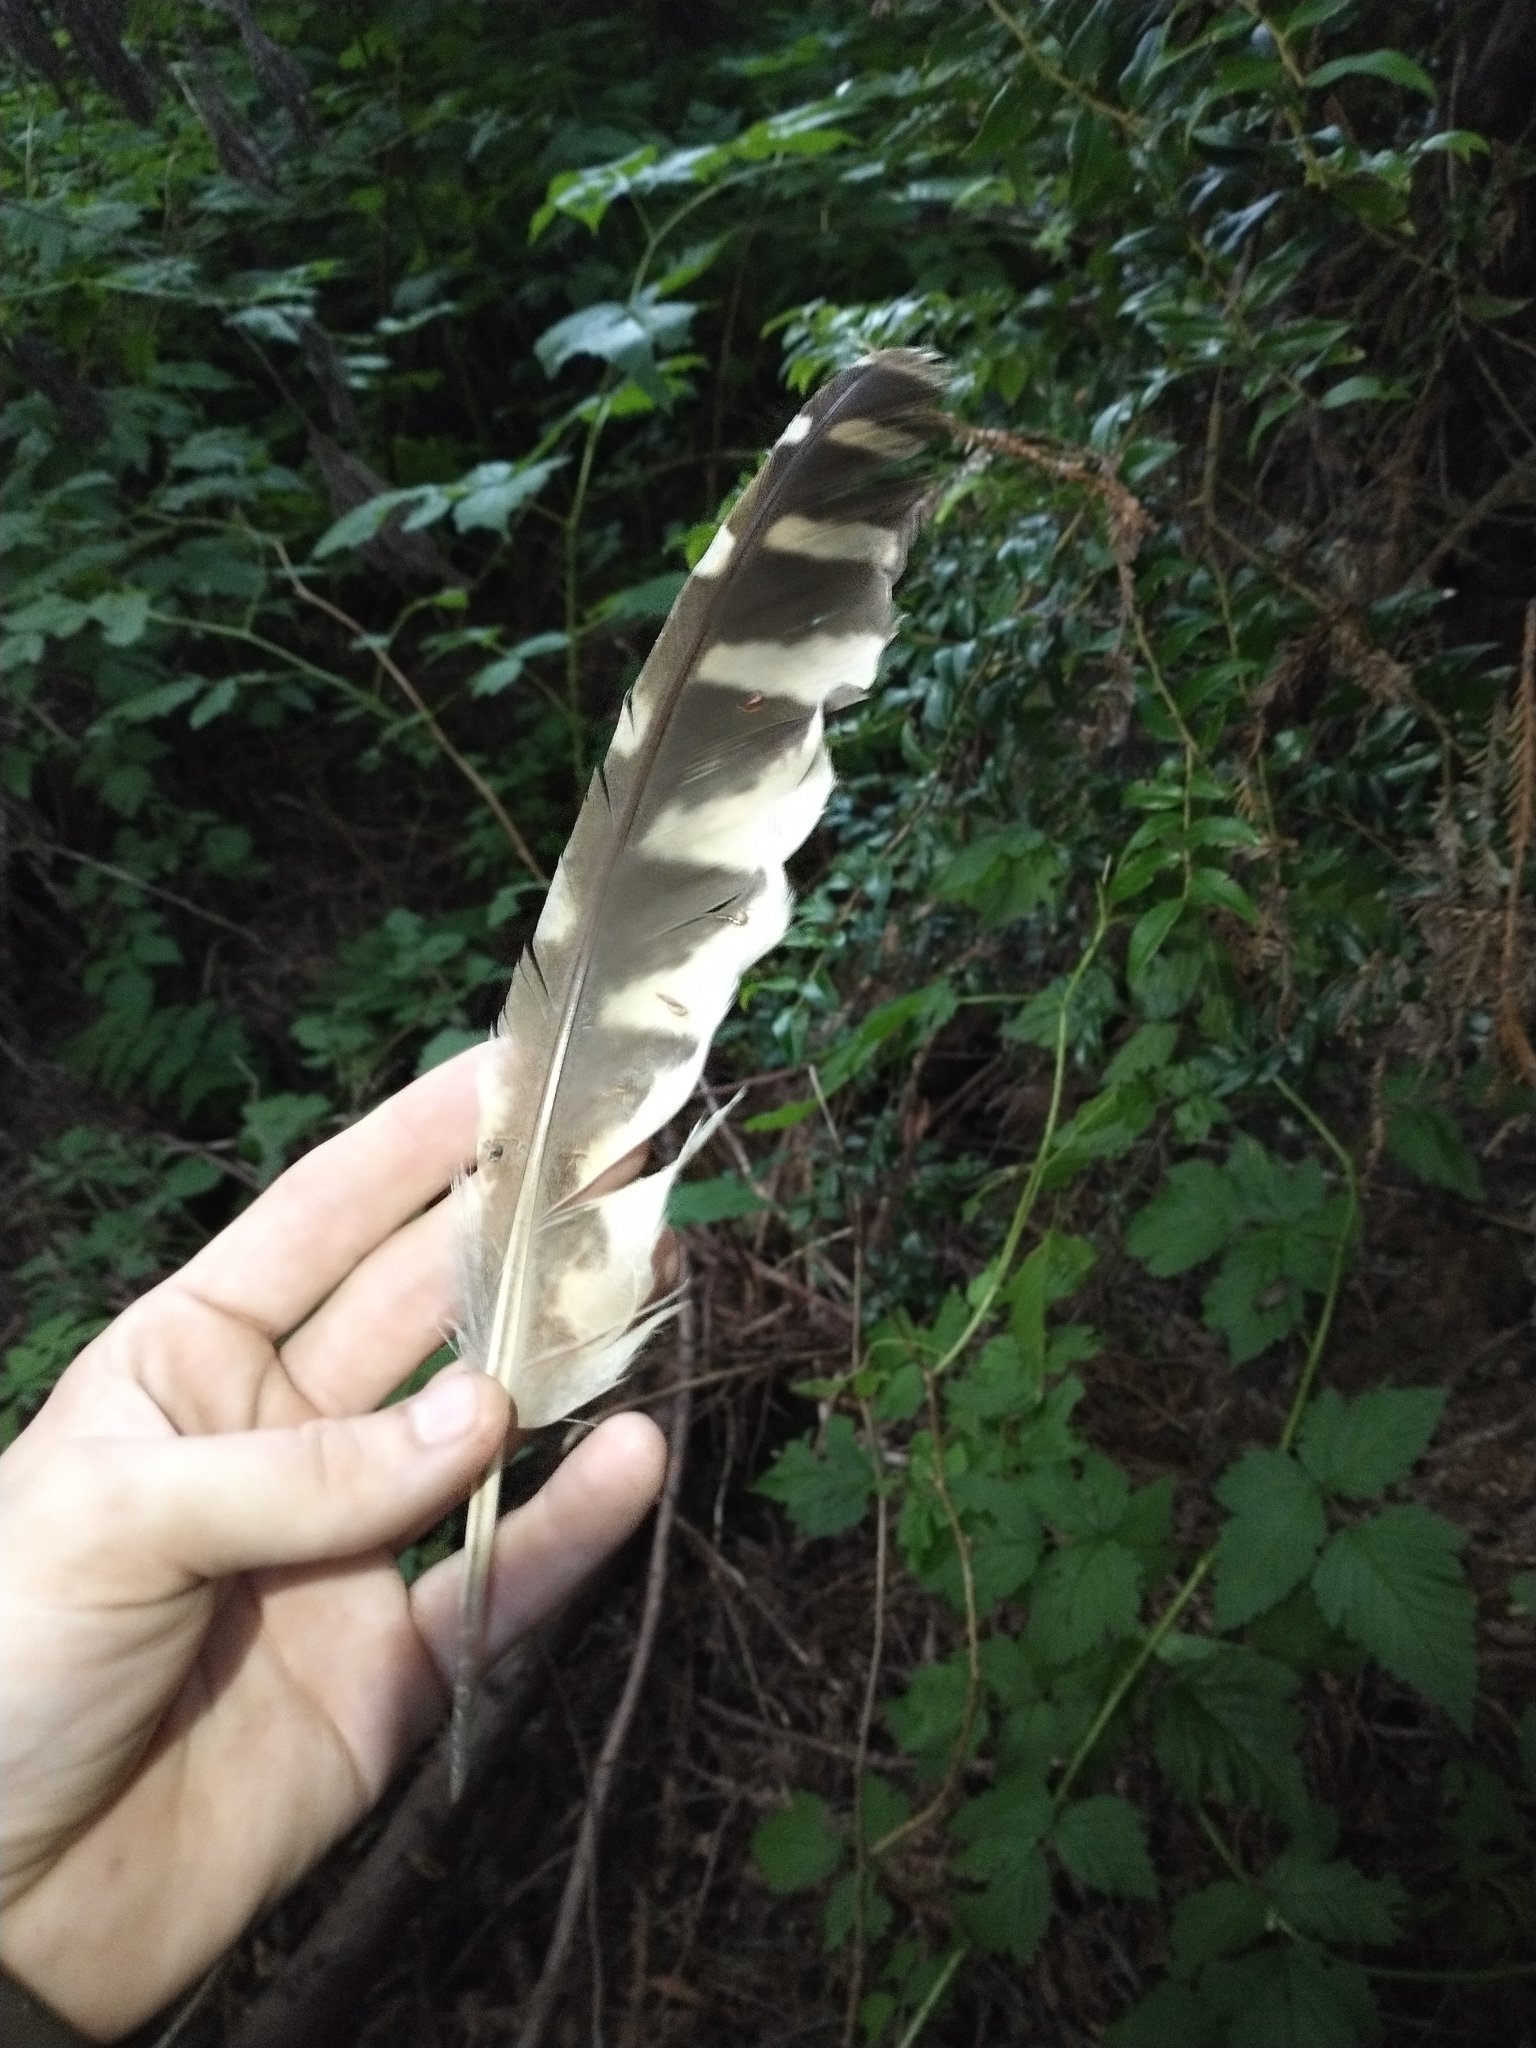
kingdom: Animalia
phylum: Chordata
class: Aves
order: Strigiformes
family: Strigidae
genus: Strix
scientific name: Strix varia
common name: Barred owl
